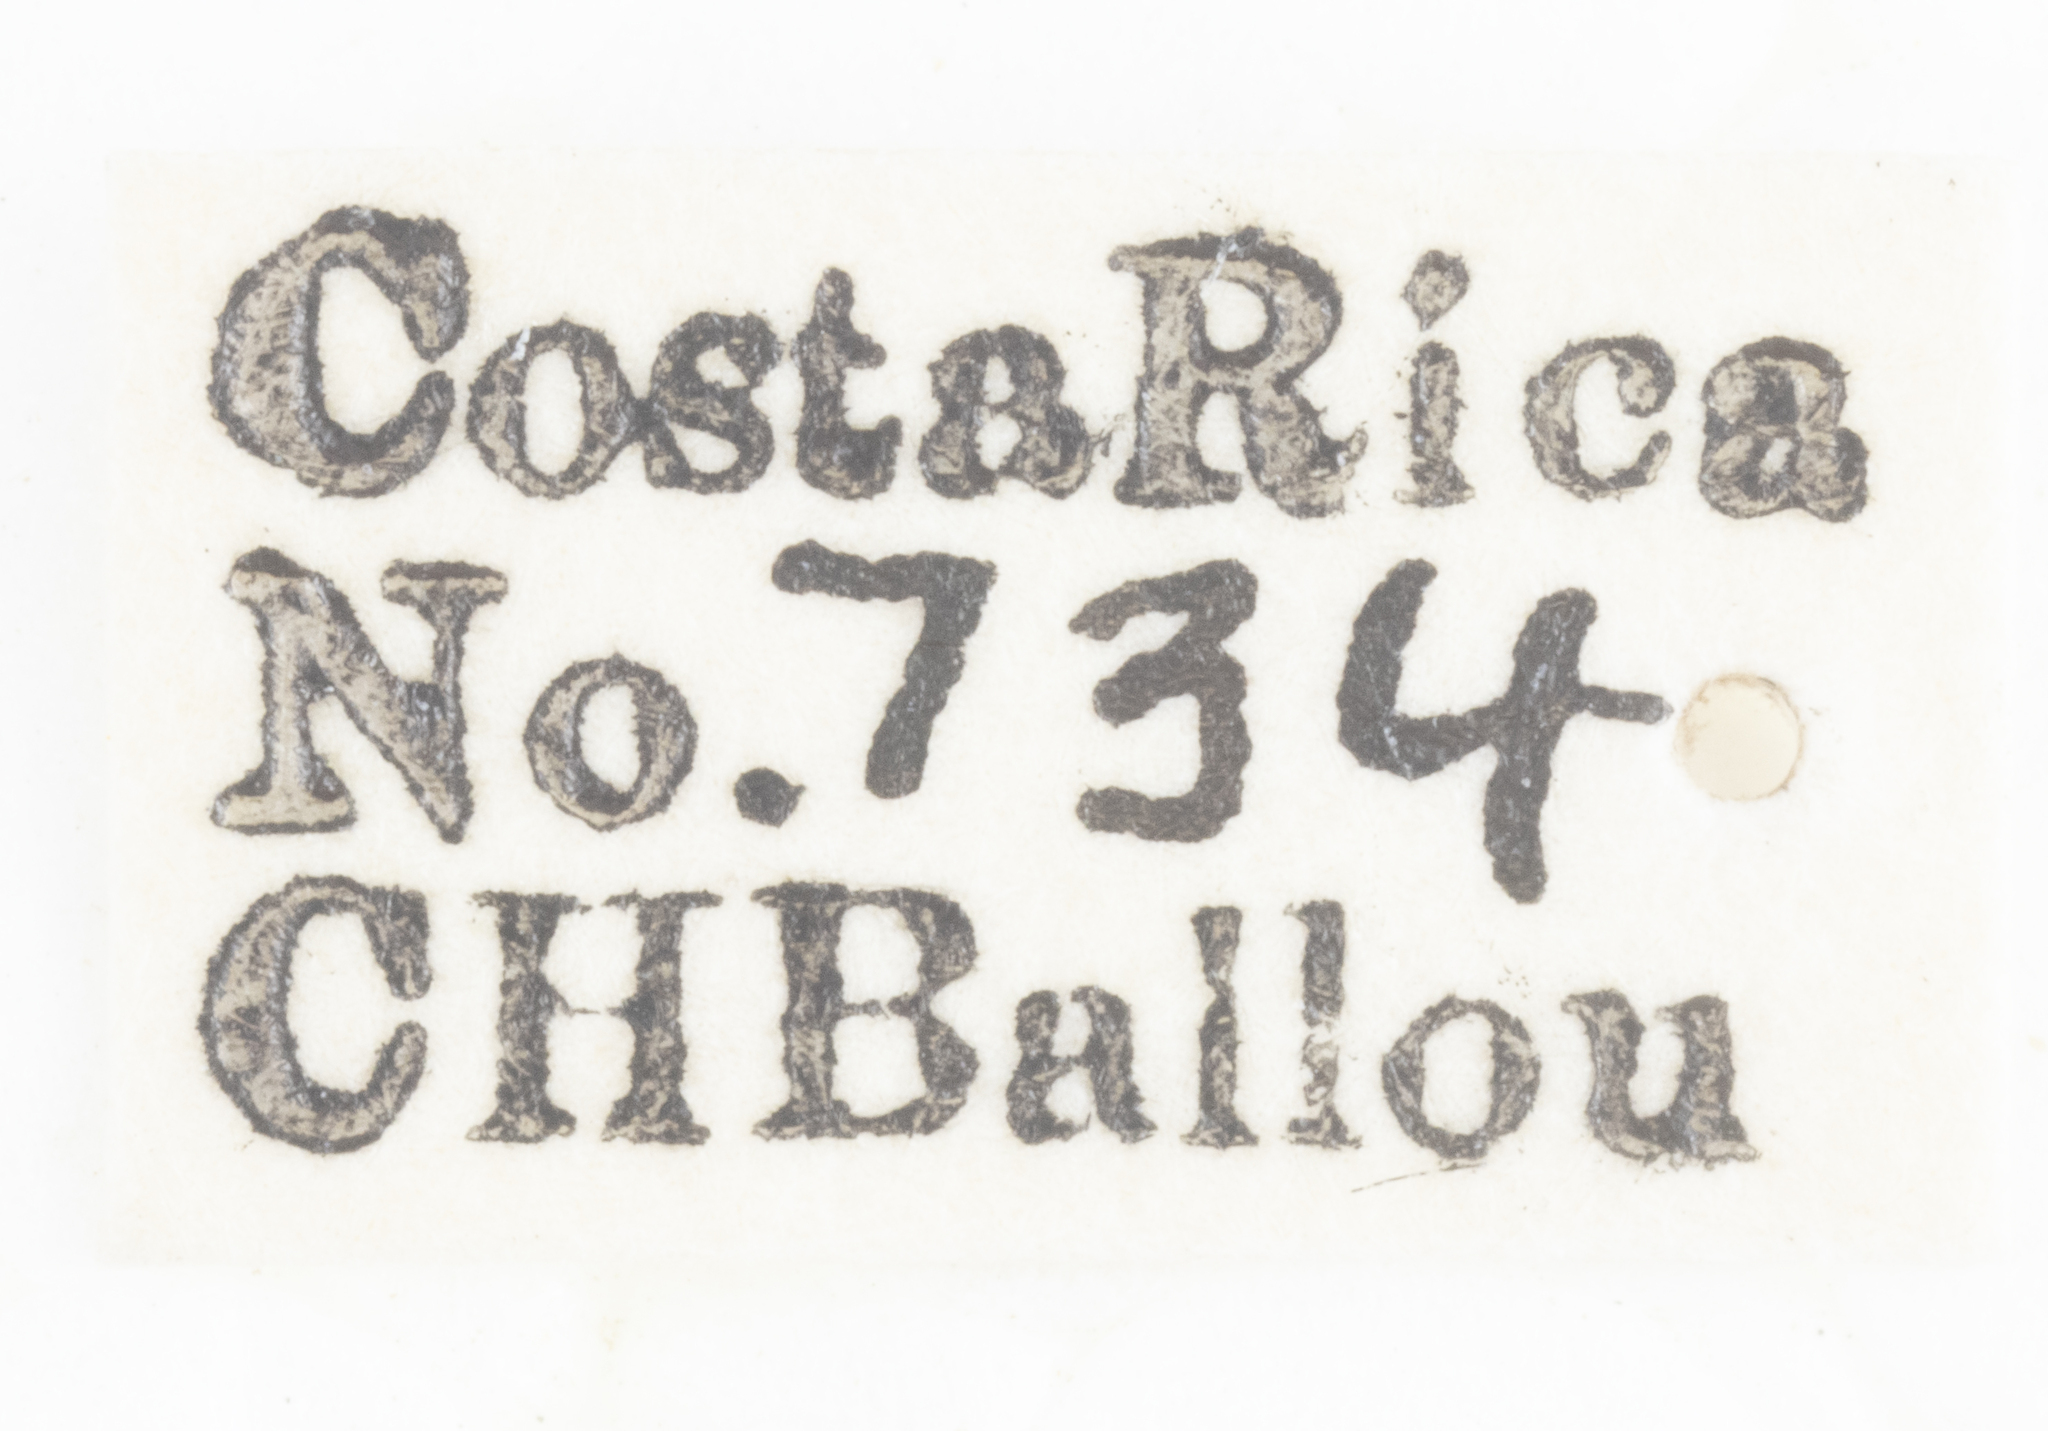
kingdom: Animalia
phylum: Arthropoda
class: Insecta
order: Hemiptera
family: Tropiduchidae
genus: Neorudia
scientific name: Neorudia proxima
